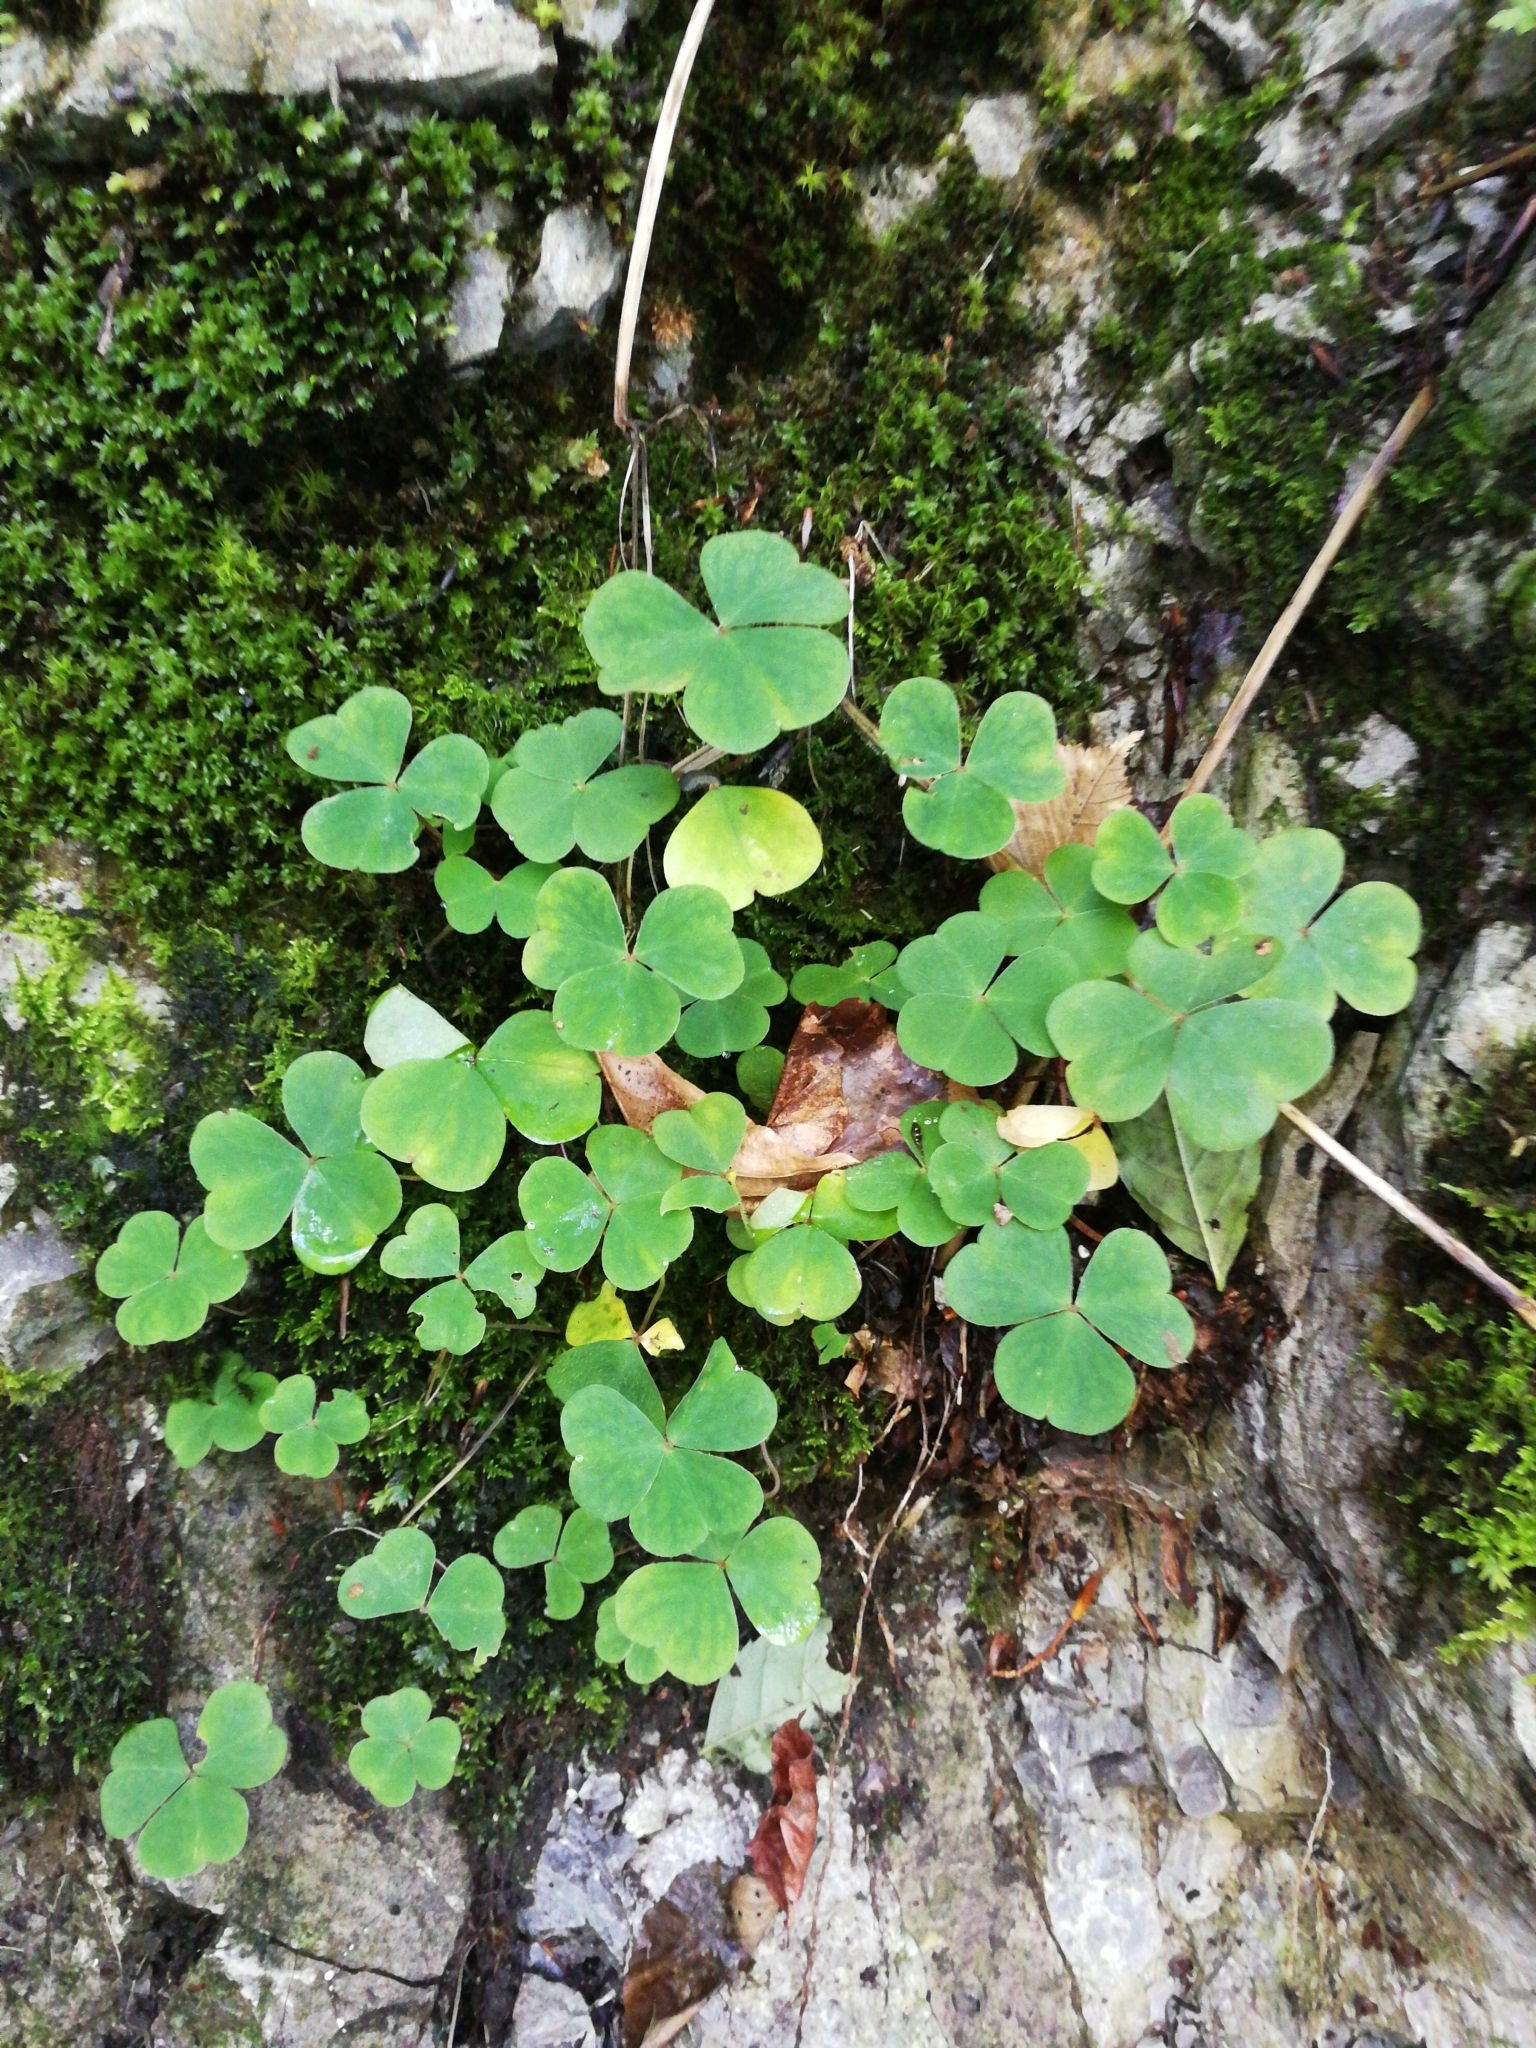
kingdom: Plantae
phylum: Tracheophyta
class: Magnoliopsida
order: Oxalidales
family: Oxalidaceae
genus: Oxalis
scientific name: Oxalis acetosella
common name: Wood-sorrel
